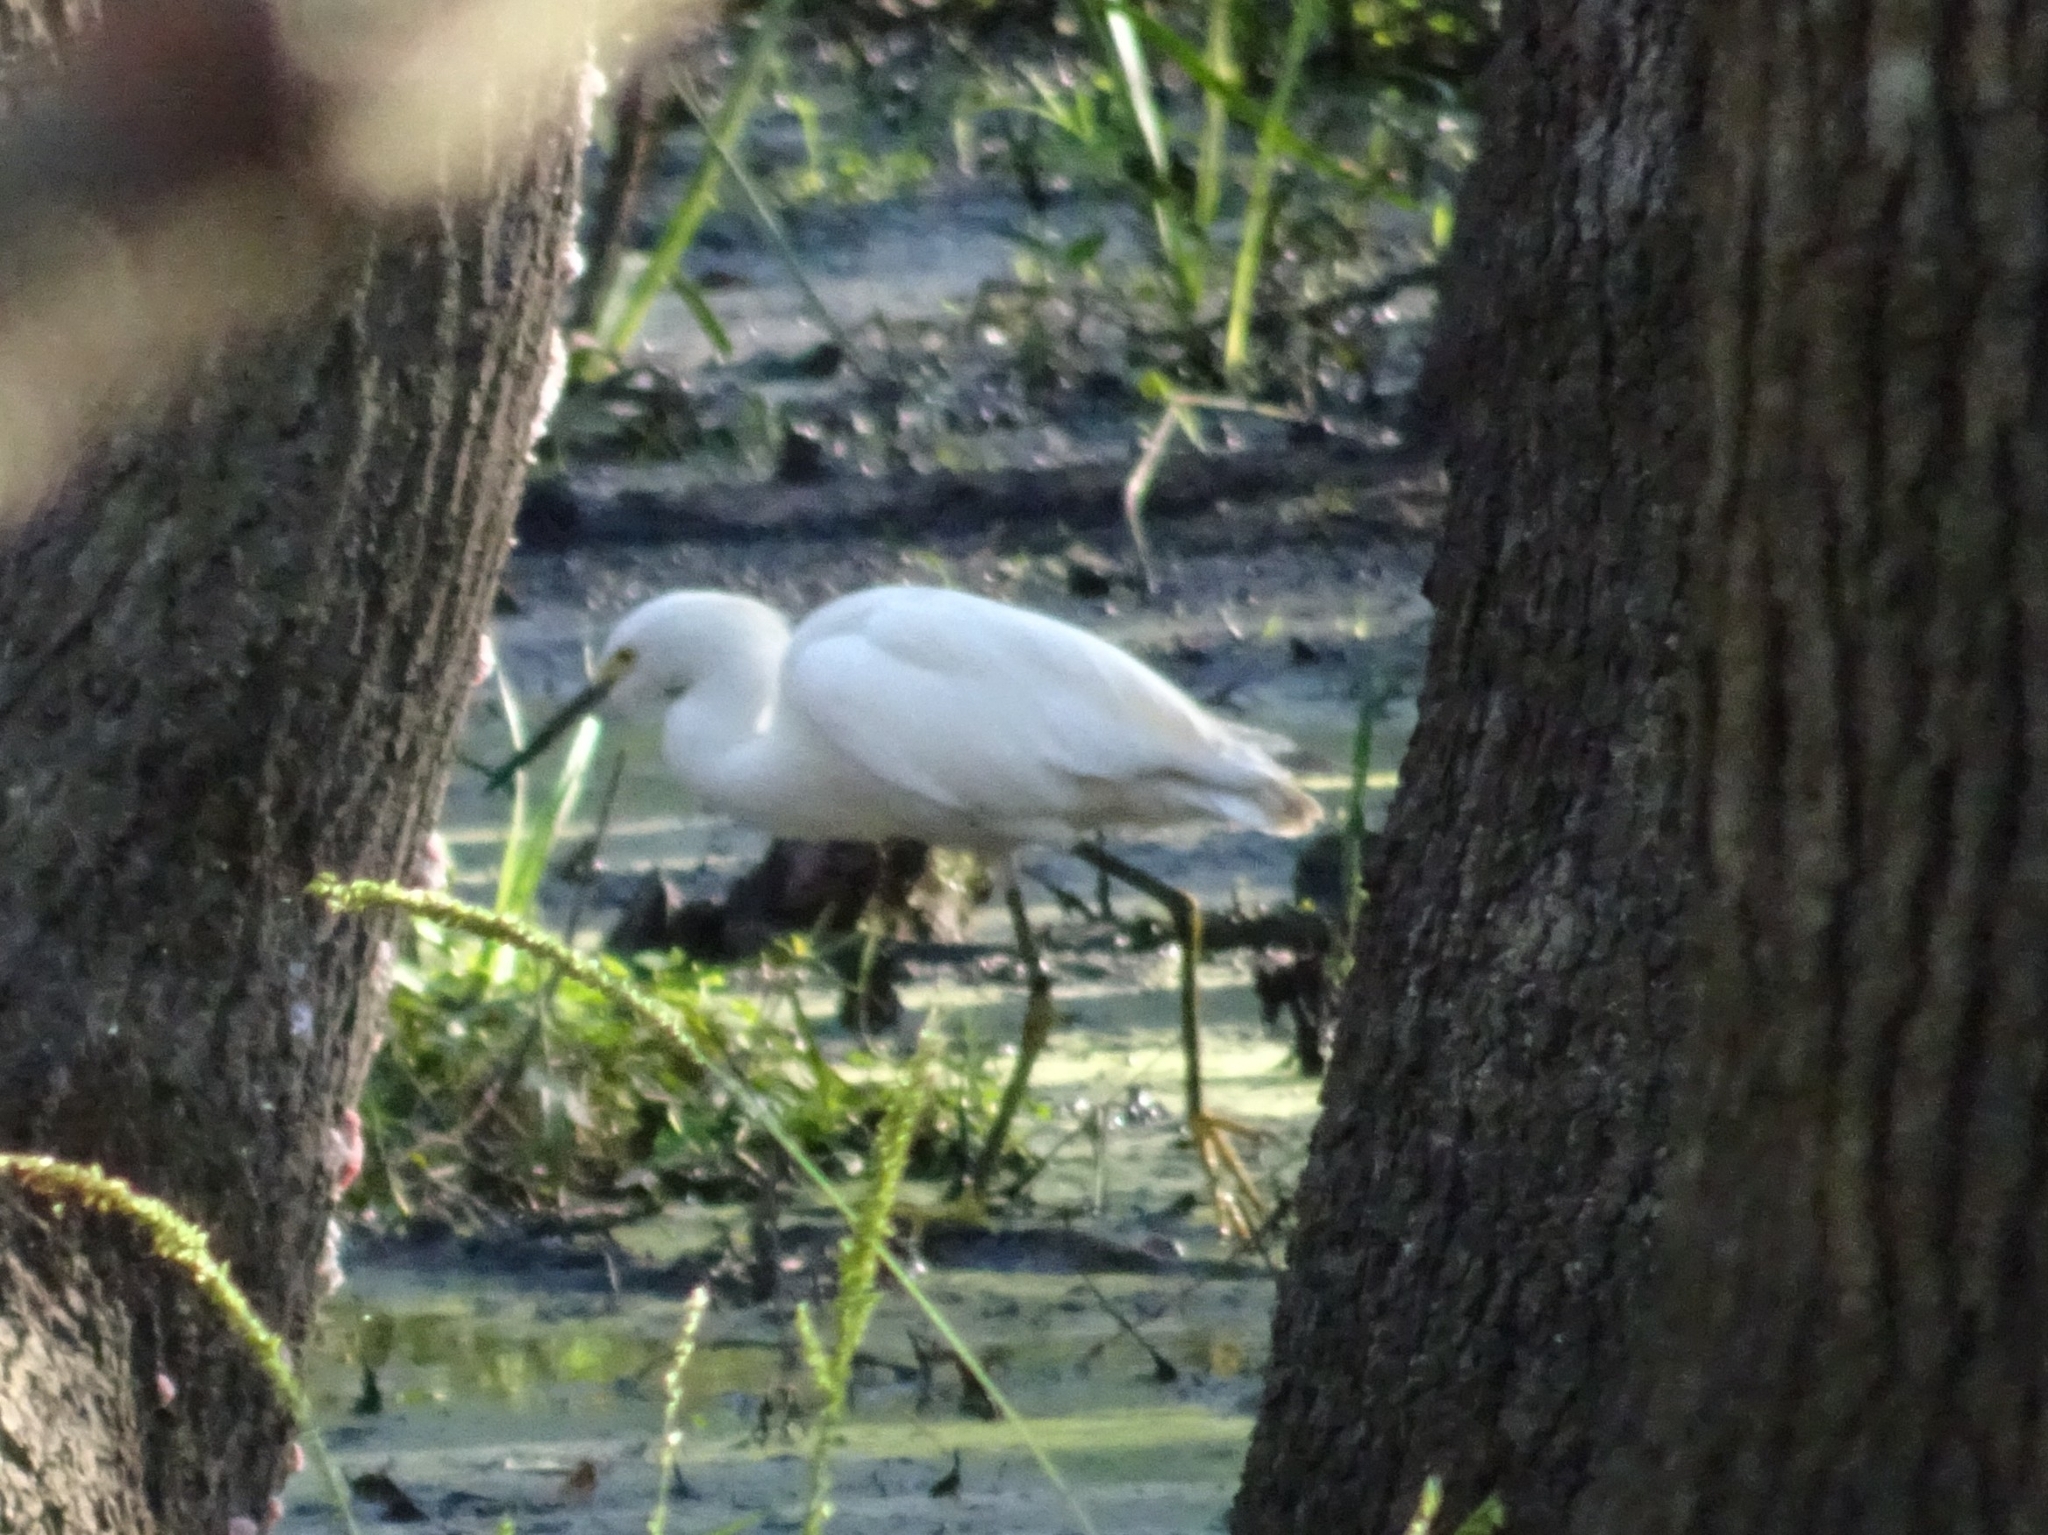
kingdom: Animalia
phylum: Chordata
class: Aves
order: Pelecaniformes
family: Ardeidae
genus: Egretta
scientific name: Egretta thula
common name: Snowy egret
